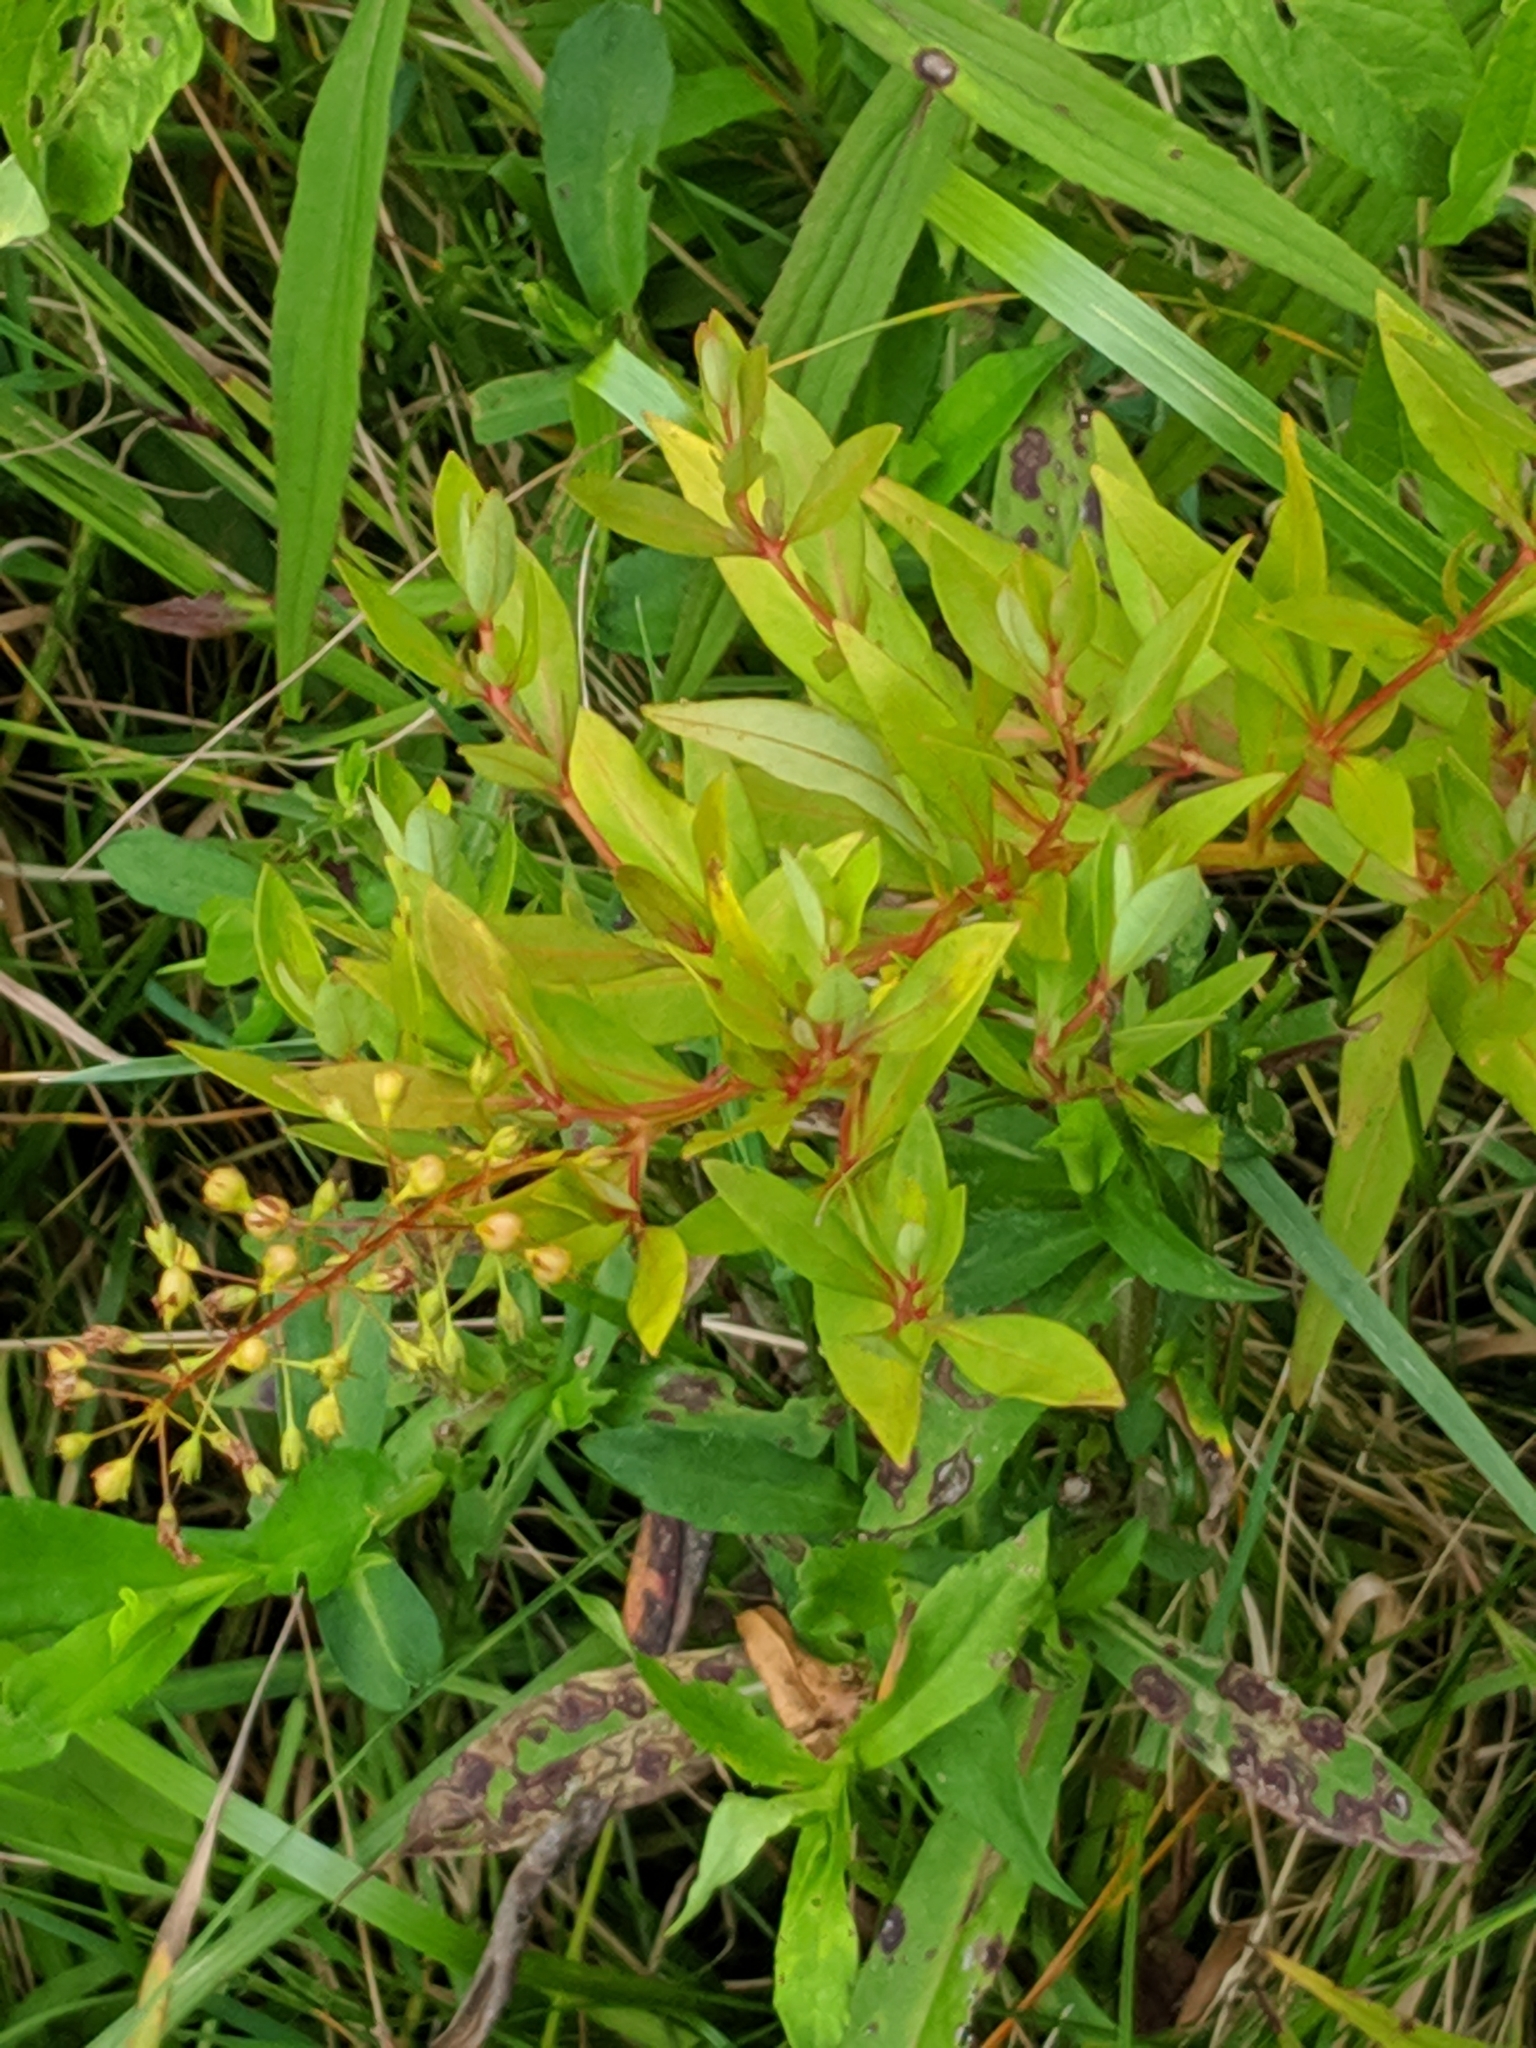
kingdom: Plantae
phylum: Tracheophyta
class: Magnoliopsida
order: Ericales
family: Primulaceae
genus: Lysimachia
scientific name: Lysimachia terrestris
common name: Lake loosestrife
